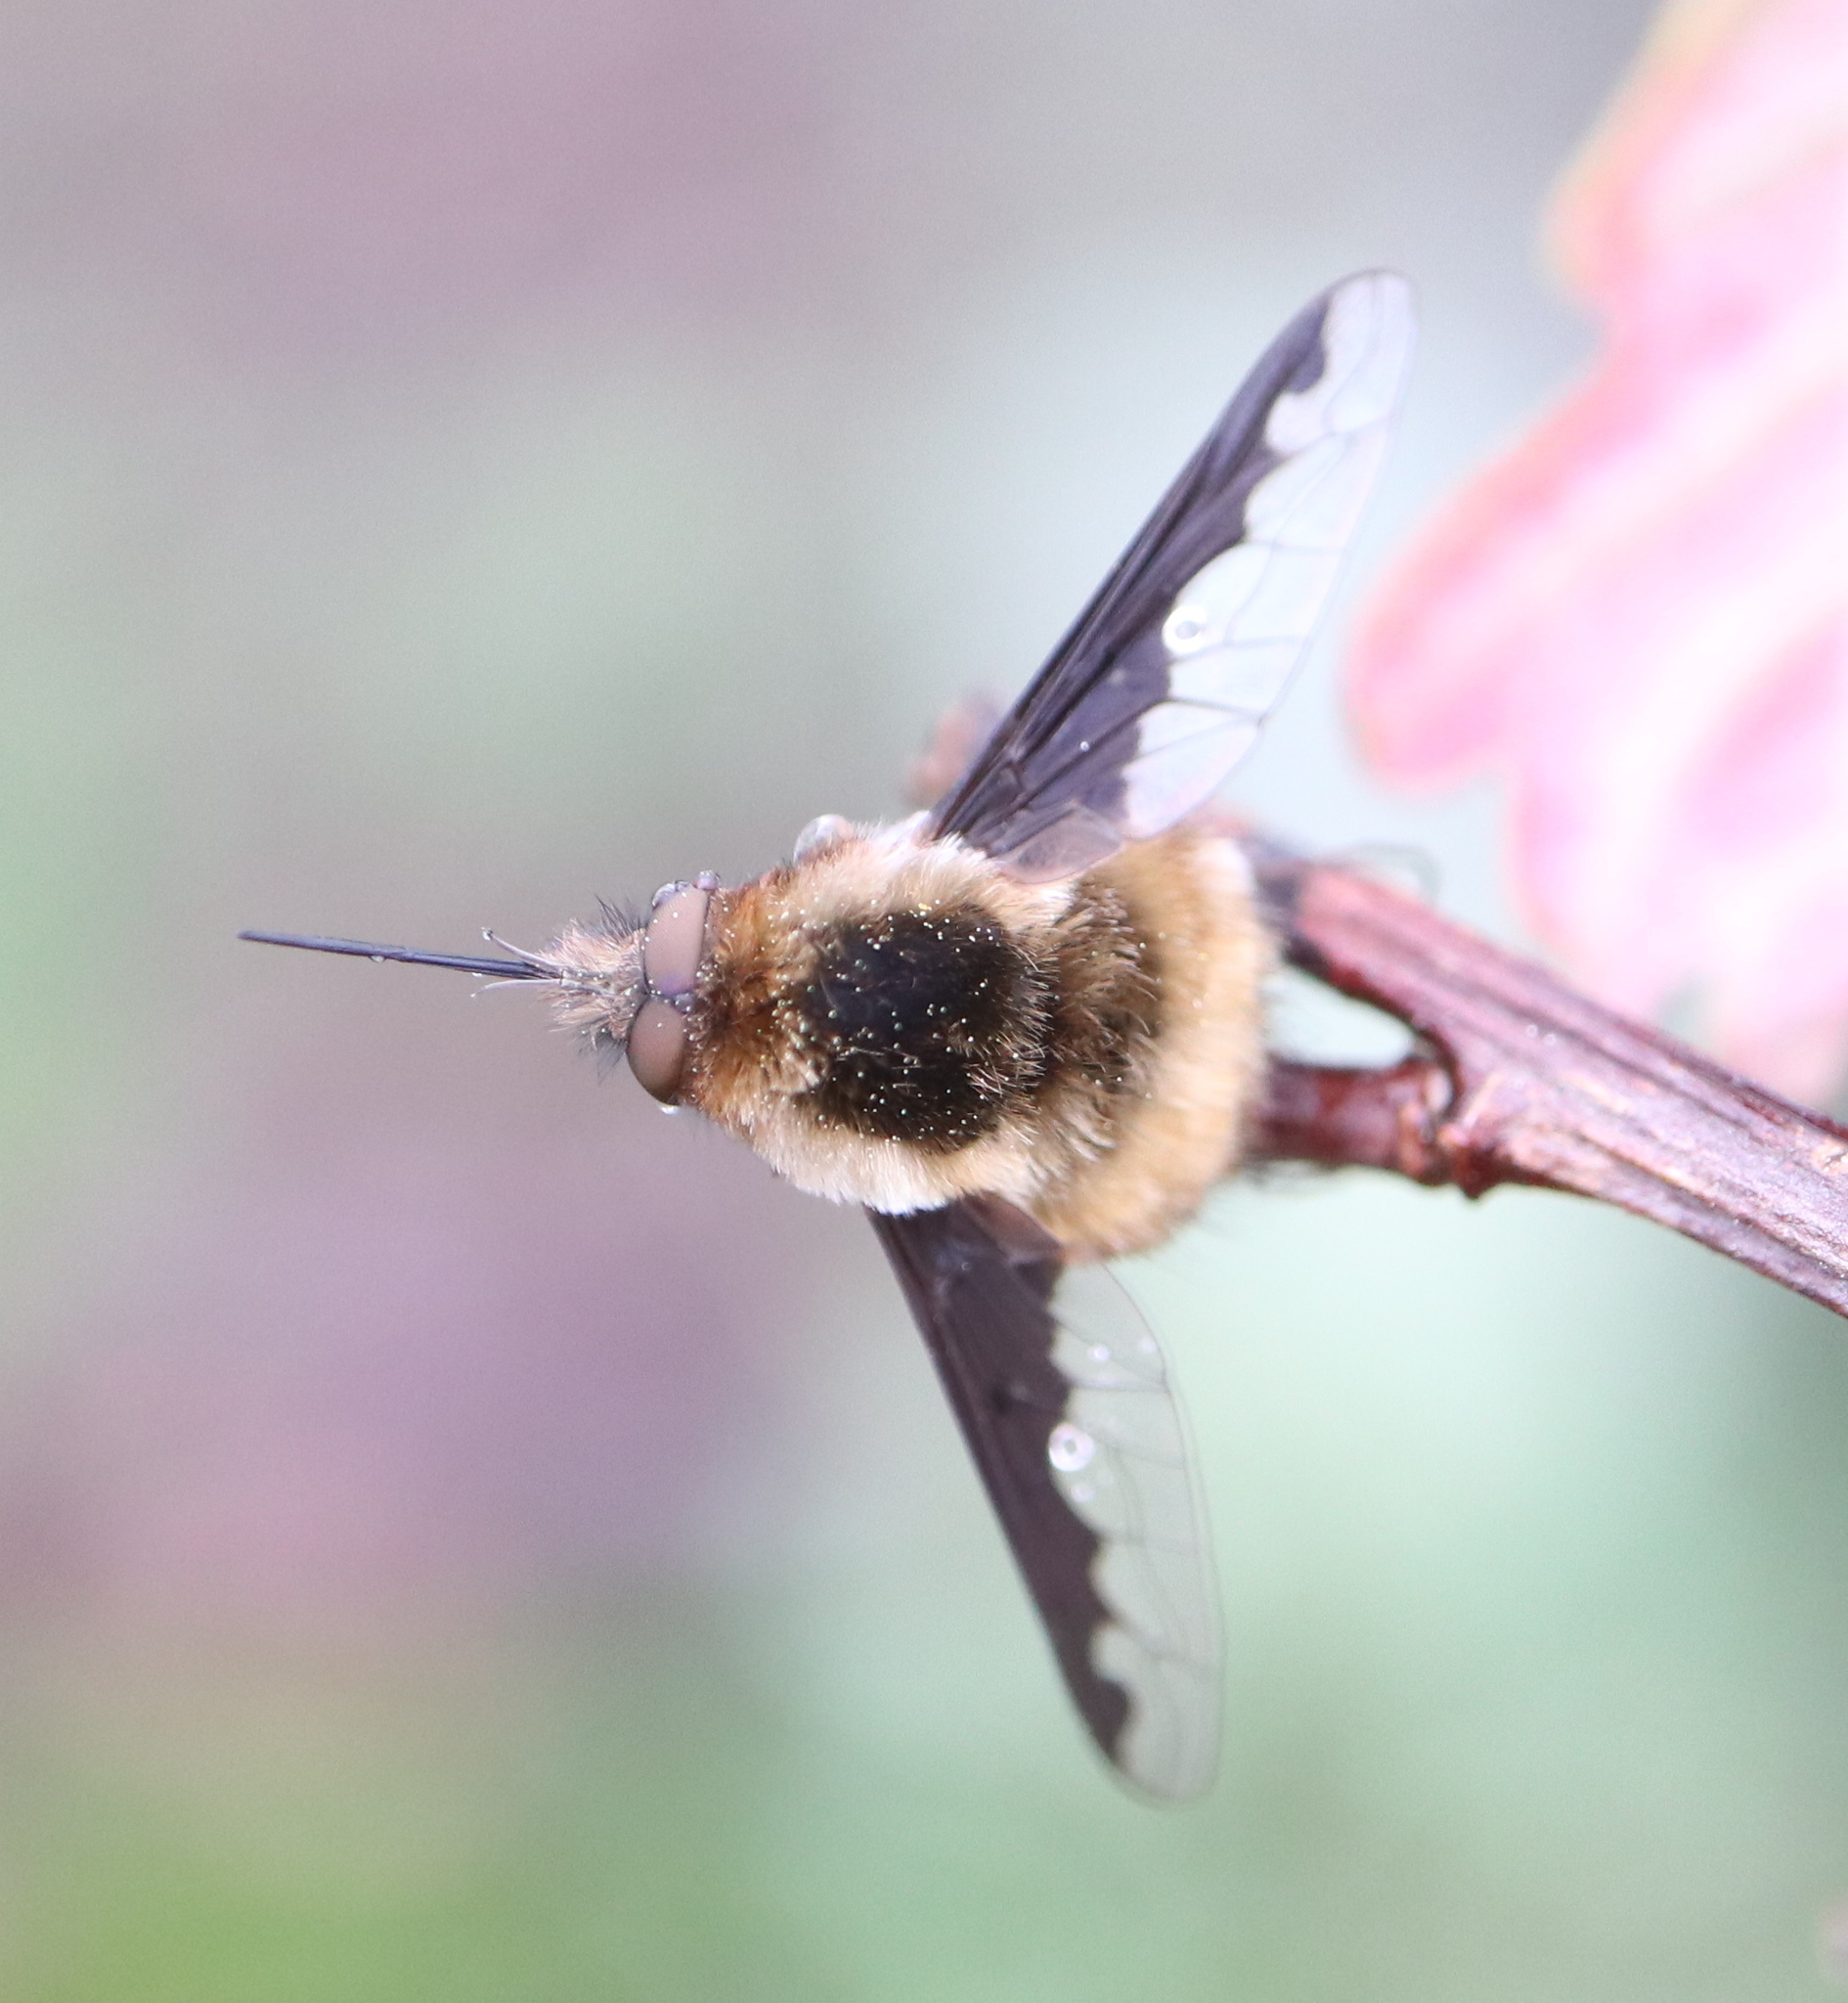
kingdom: Animalia
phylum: Arthropoda
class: Insecta
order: Diptera
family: Bombyliidae
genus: Bombylius
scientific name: Bombylius major
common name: Bee fly
